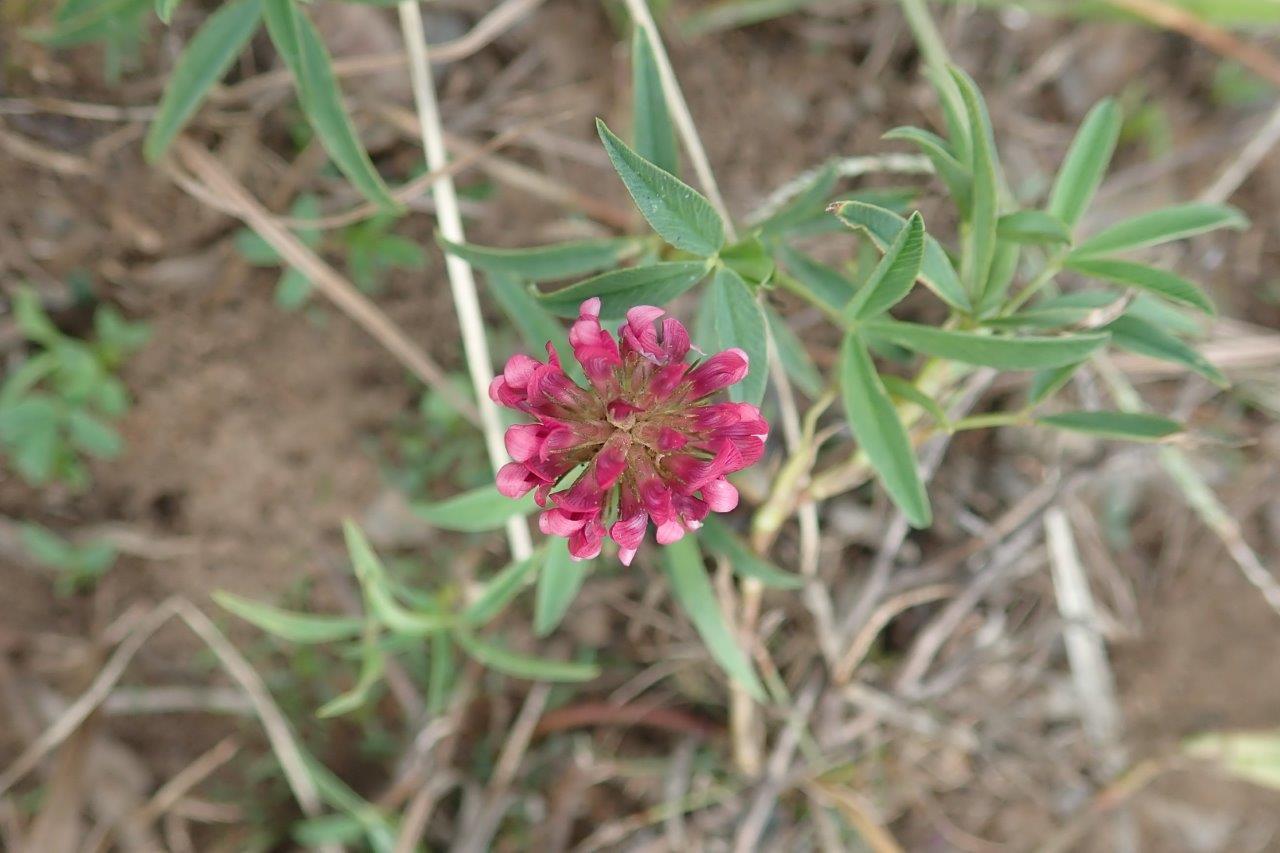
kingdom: Plantae
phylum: Tracheophyta
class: Magnoliopsida
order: Fabales
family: Fabaceae
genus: Trifolium
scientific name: Trifolium africanum
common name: Erasmus clover
